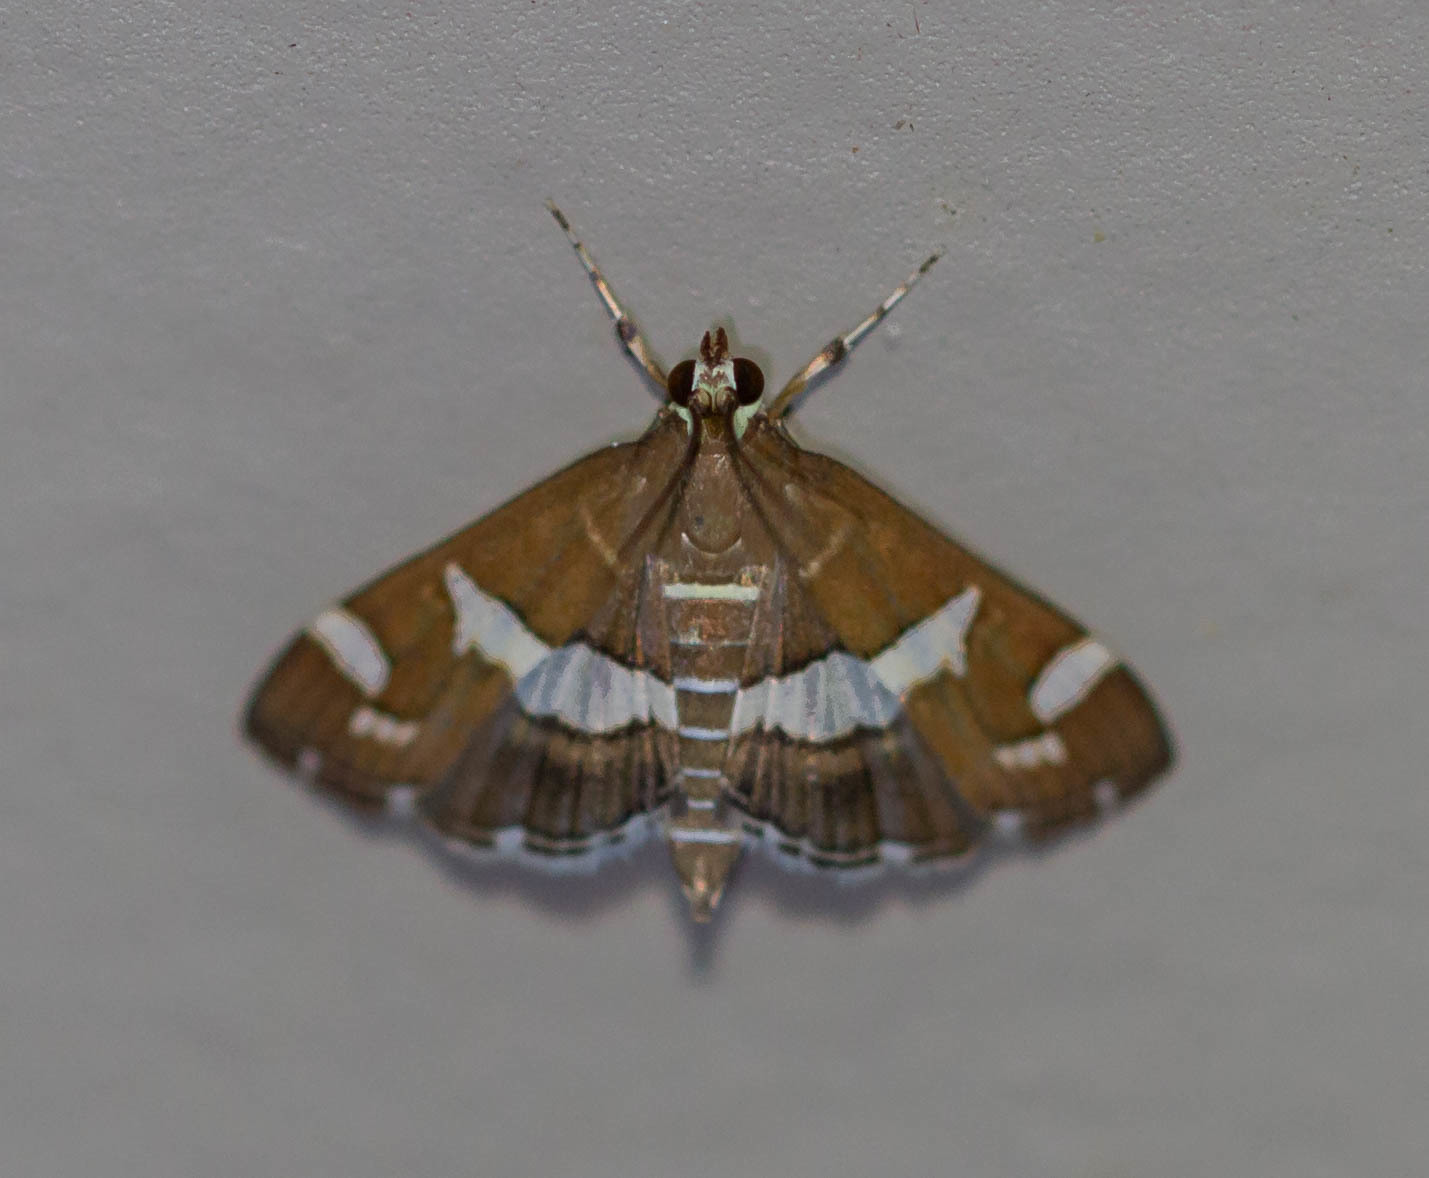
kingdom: Animalia
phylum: Arthropoda
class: Insecta
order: Lepidoptera
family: Crambidae
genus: Spoladea
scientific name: Spoladea recurvalis
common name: Beet webworm moth
